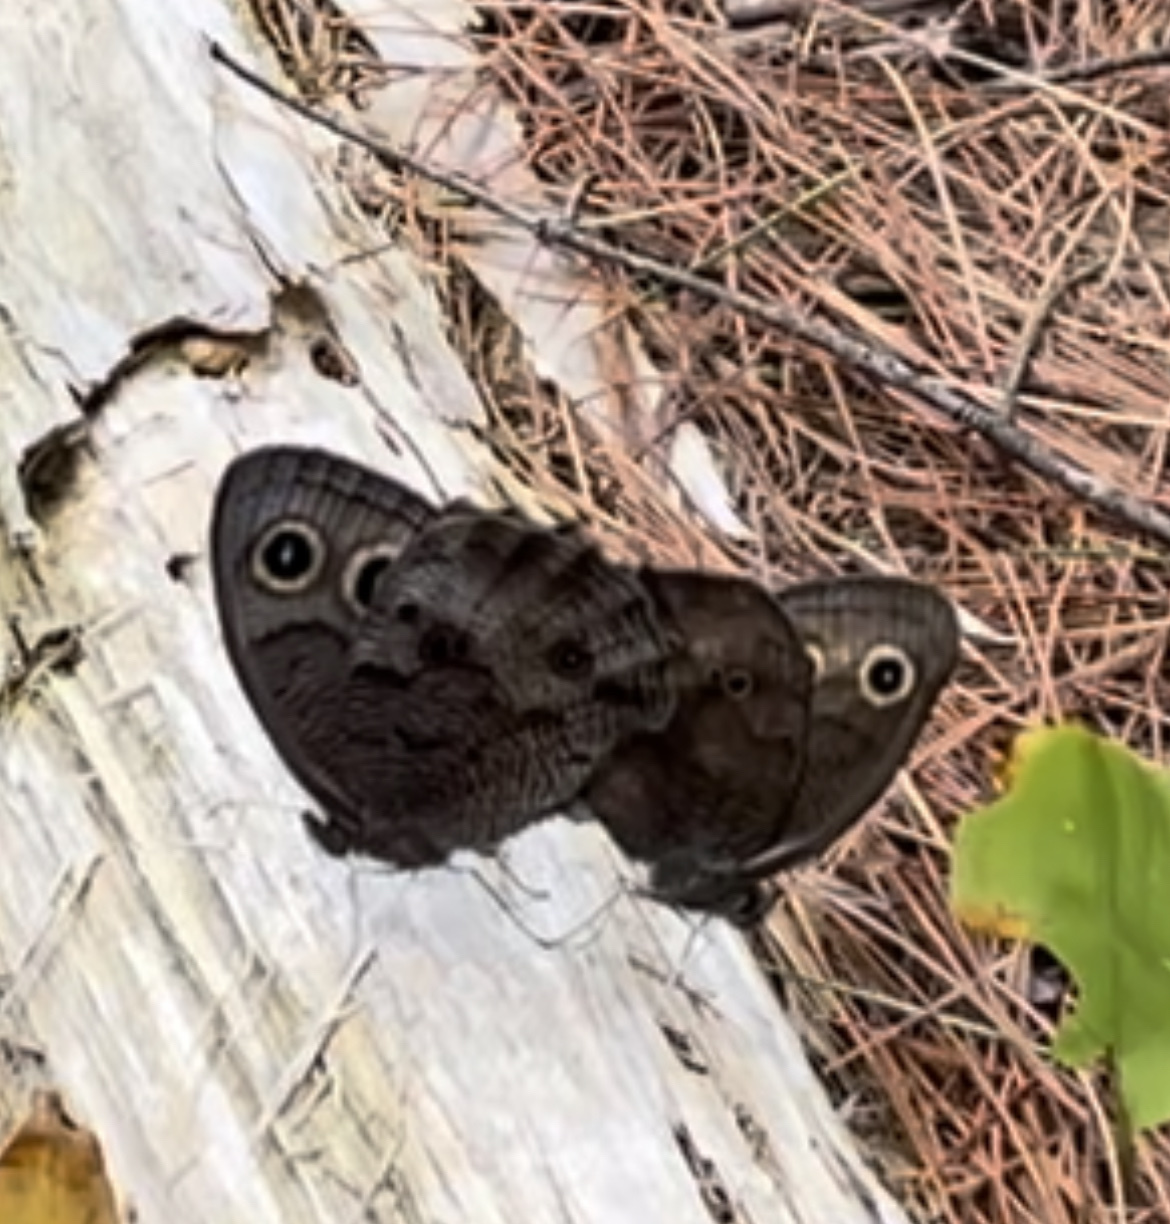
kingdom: Animalia
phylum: Arthropoda
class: Insecta
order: Lepidoptera
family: Nymphalidae
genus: Cercyonis
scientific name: Cercyonis pegala
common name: Common wood-nymph
